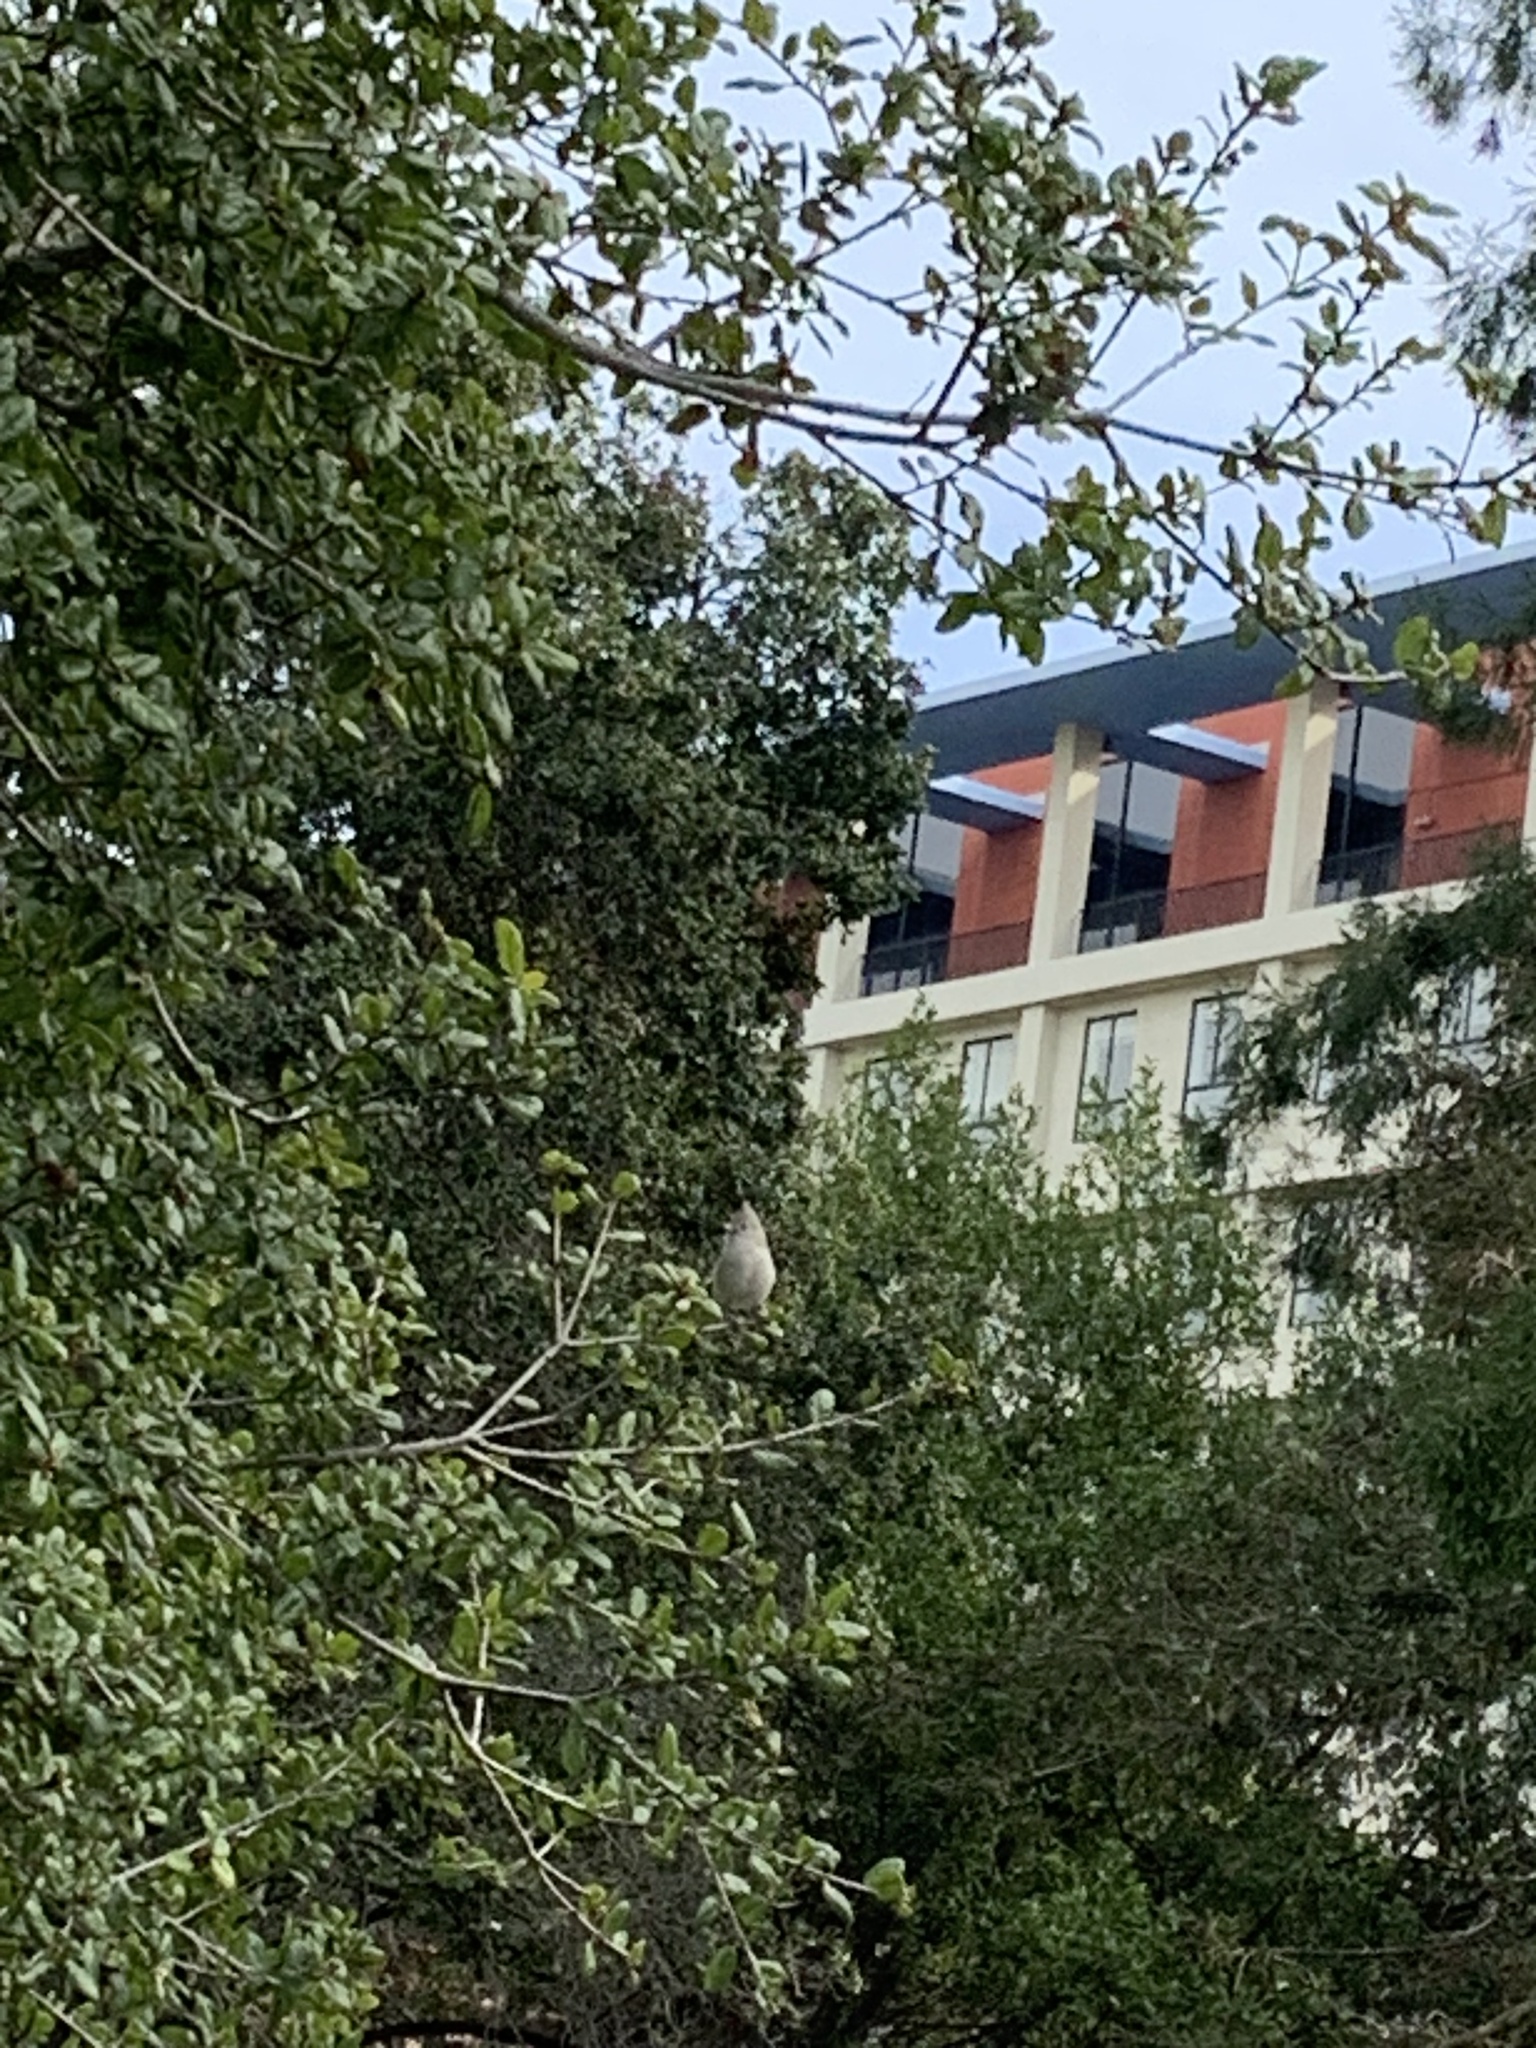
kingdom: Animalia
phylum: Chordata
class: Aves
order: Passeriformes
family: Paridae
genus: Baeolophus
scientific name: Baeolophus inornatus
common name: Oak titmouse
